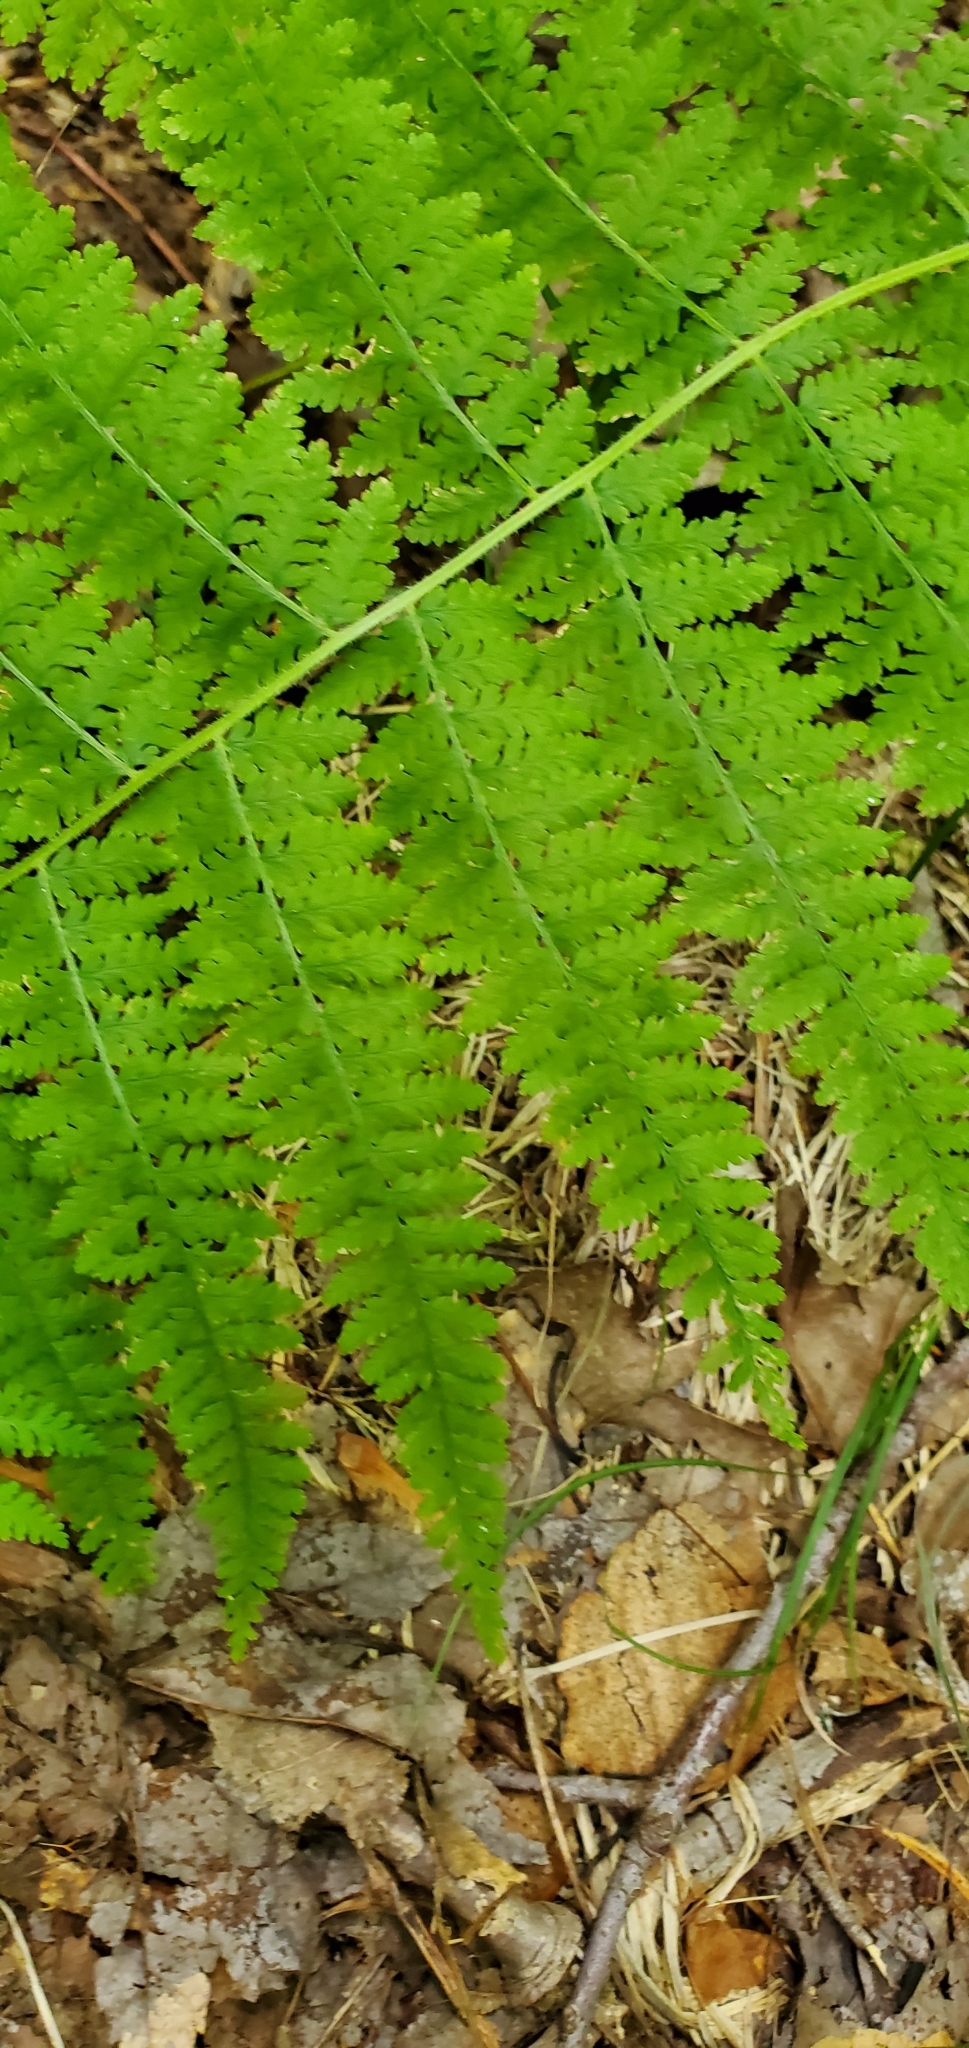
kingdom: Plantae
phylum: Tracheophyta
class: Polypodiopsida
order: Polypodiales
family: Dennstaedtiaceae
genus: Sitobolium
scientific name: Sitobolium punctilobum
